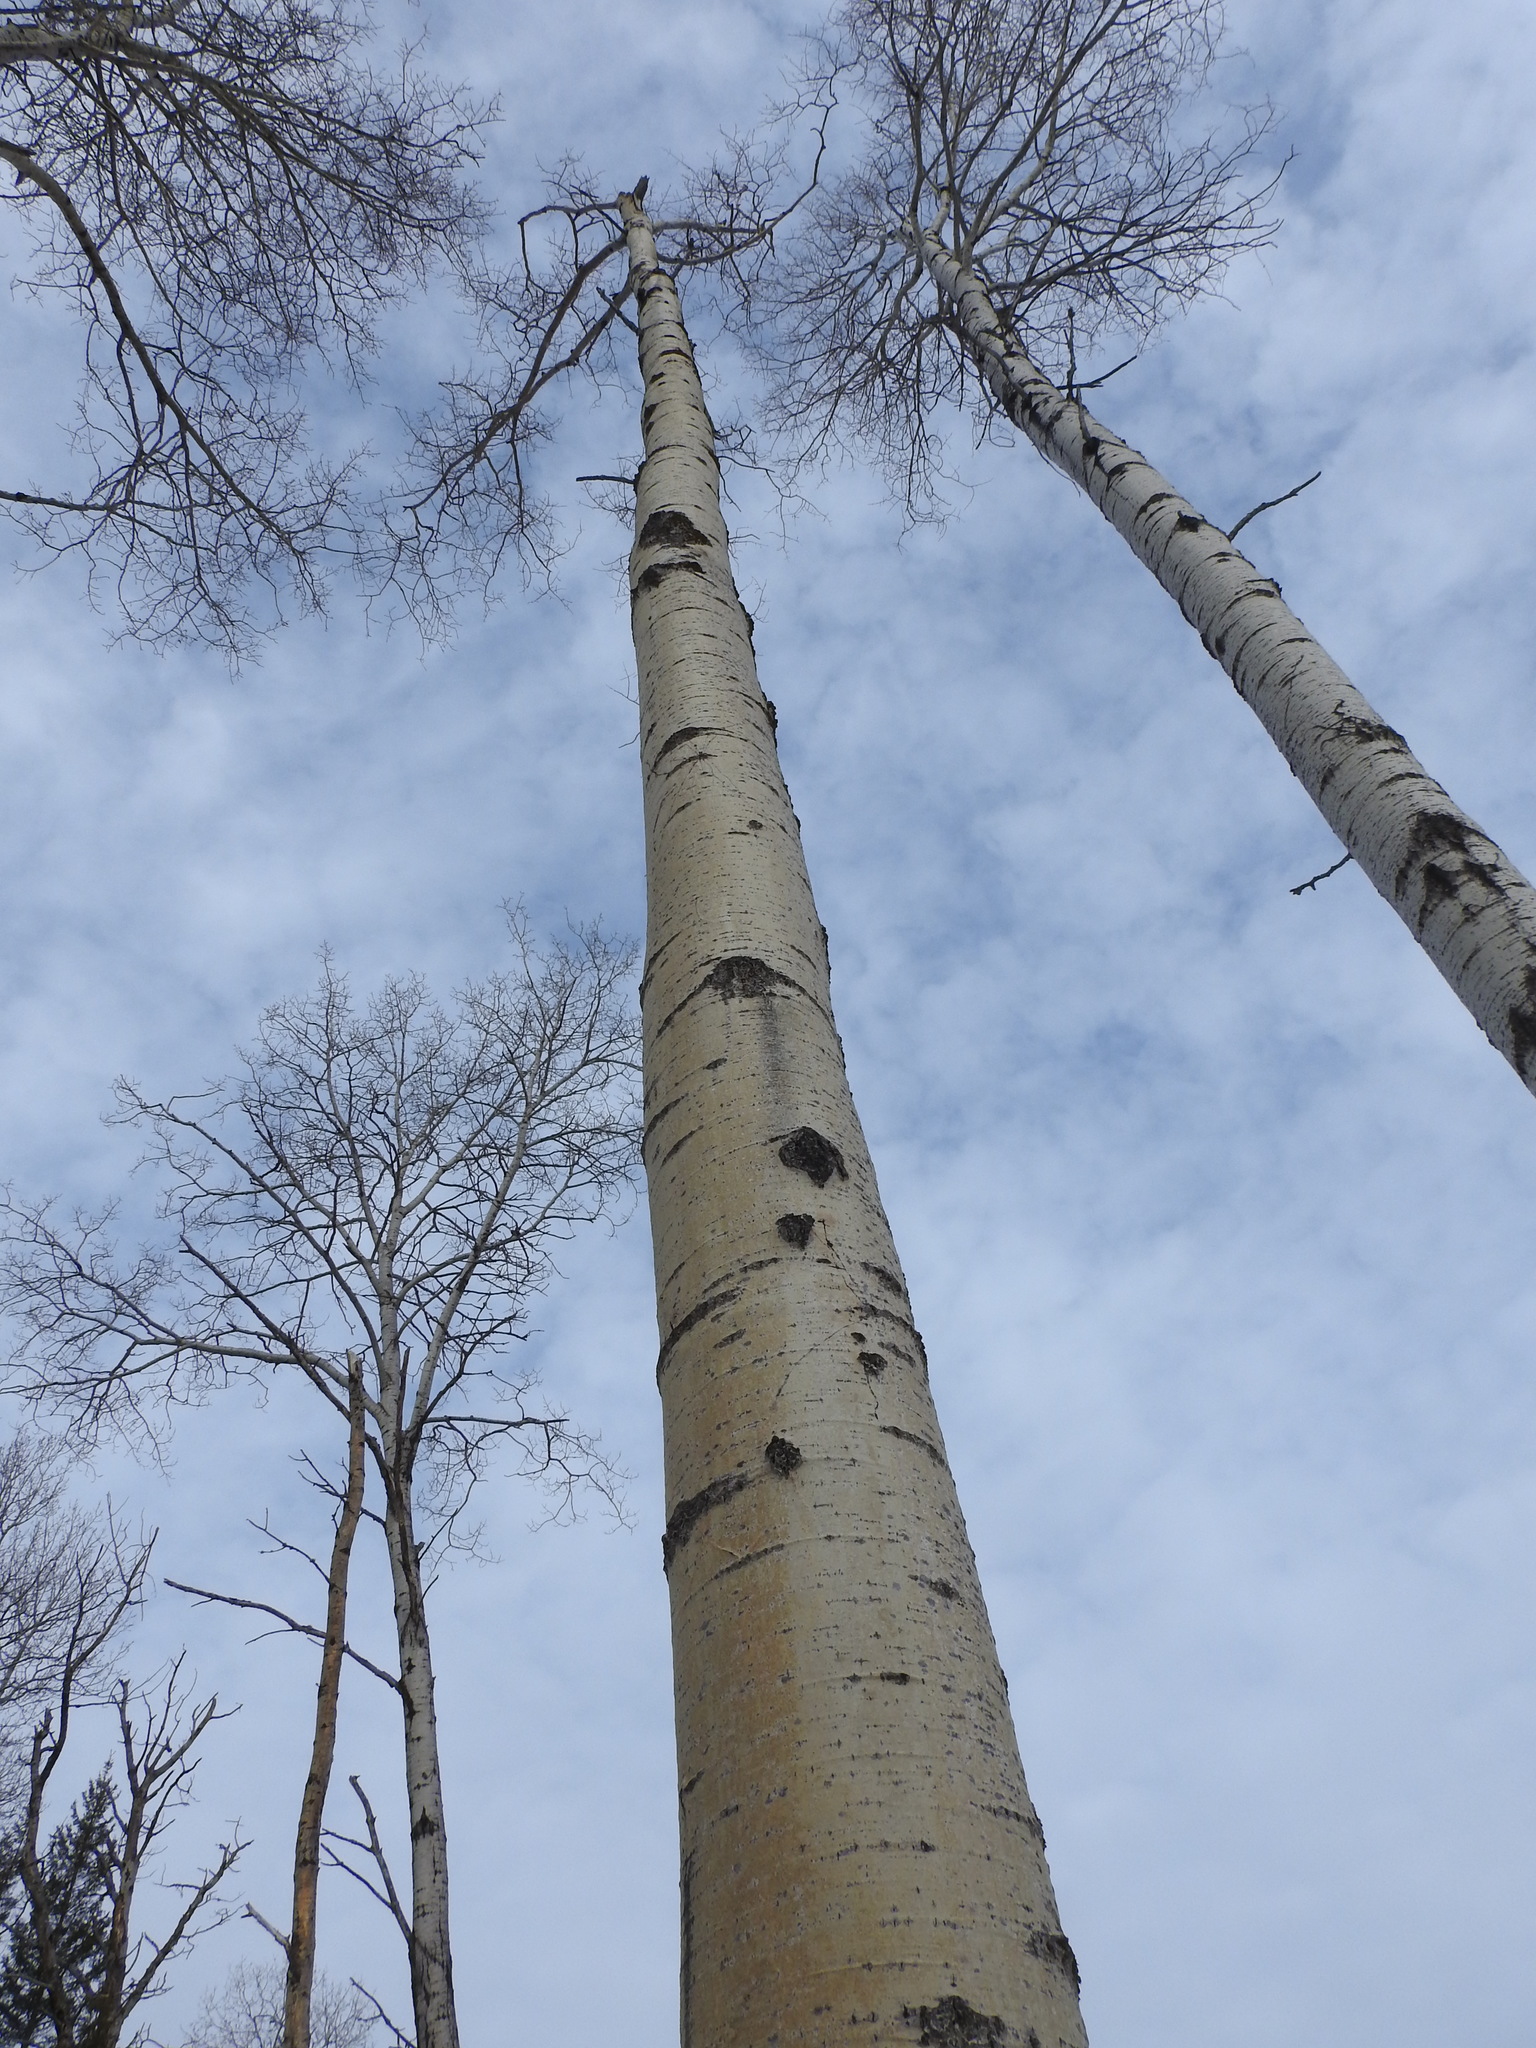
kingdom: Plantae
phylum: Tracheophyta
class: Magnoliopsida
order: Malpighiales
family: Salicaceae
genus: Populus
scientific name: Populus tremuloides
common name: Quaking aspen
